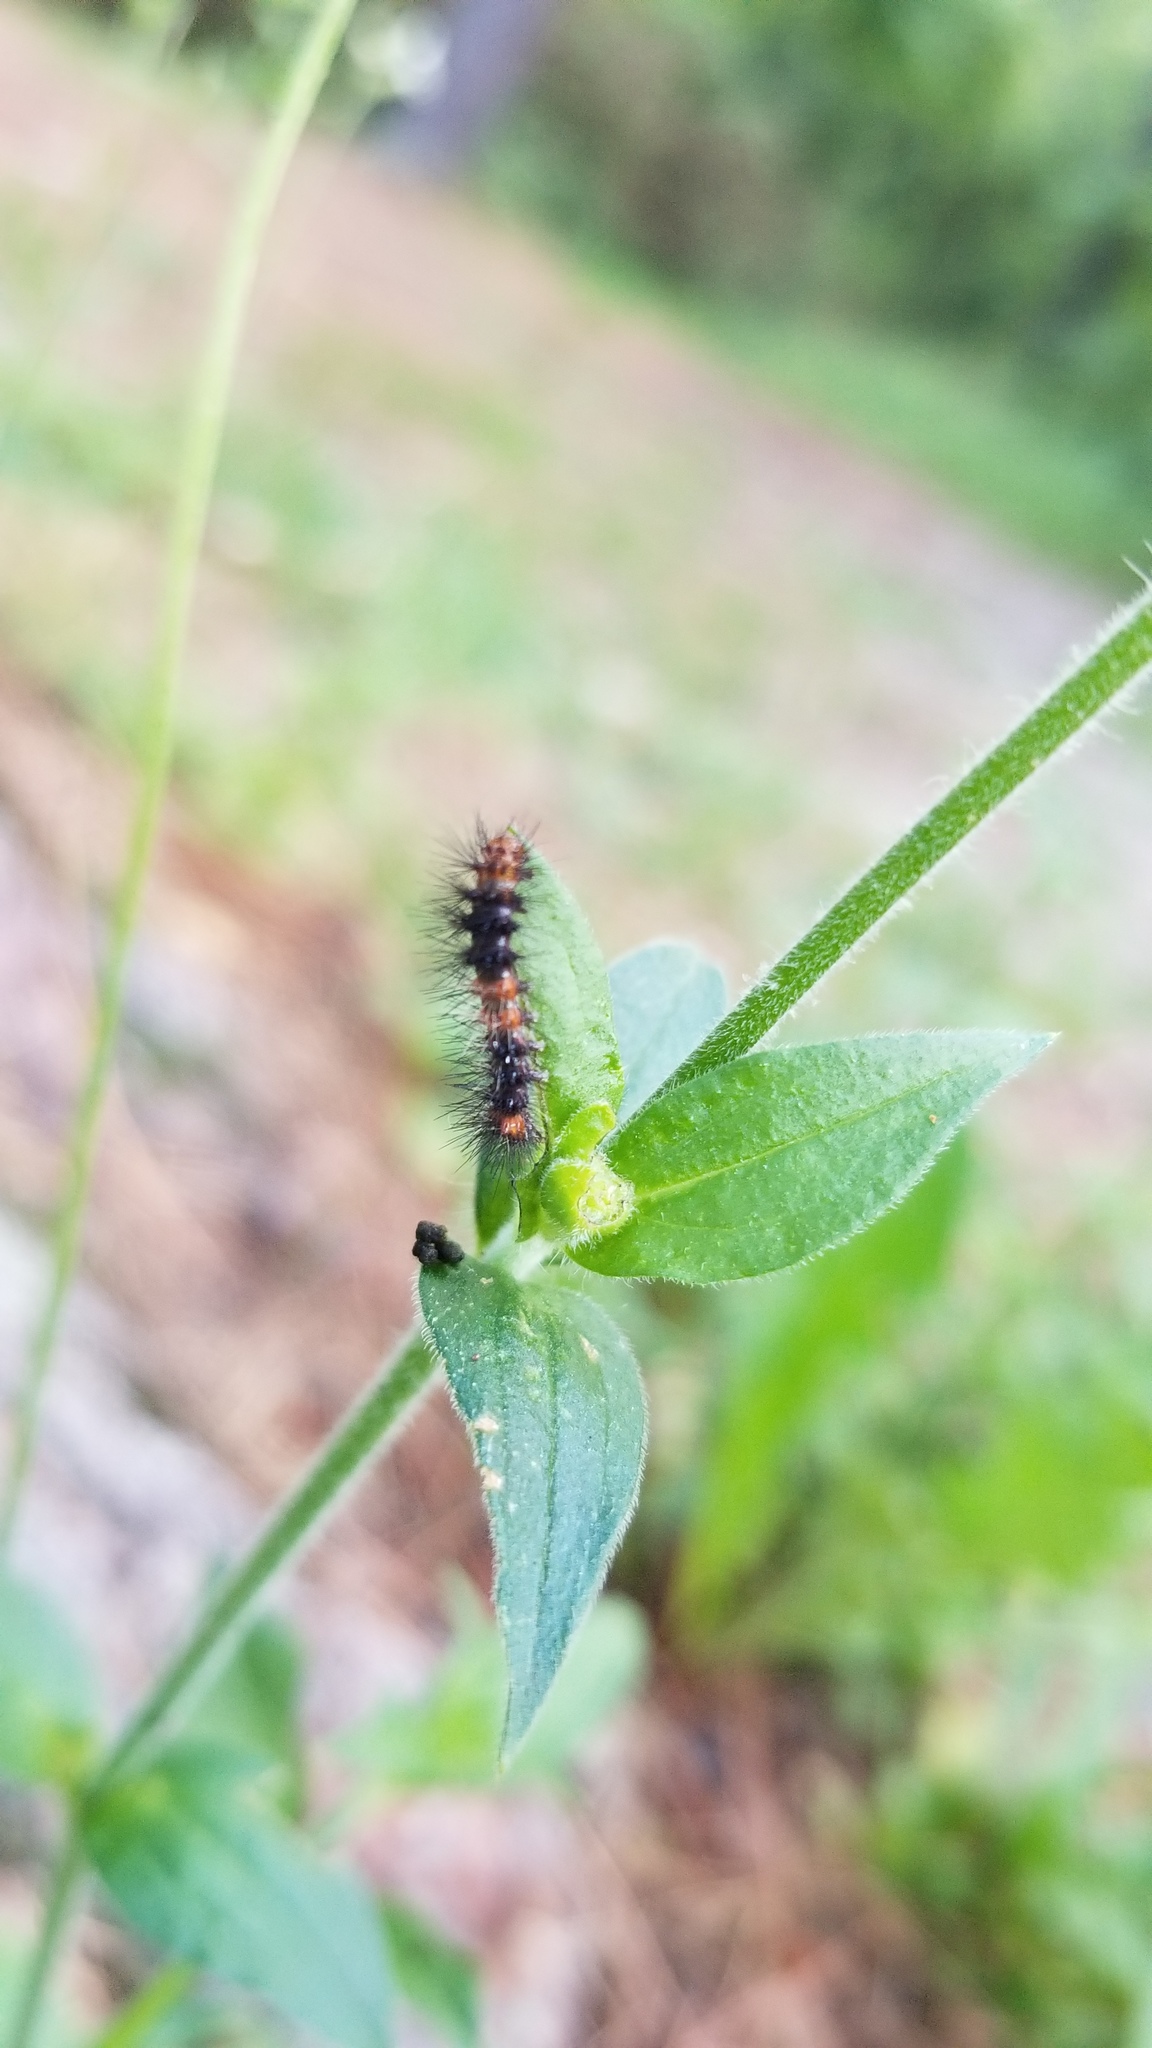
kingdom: Animalia
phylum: Arthropoda
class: Insecta
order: Lepidoptera
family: Erebidae
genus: Hypercompe
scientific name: Hypercompe scribonia
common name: Giant leopard moth
